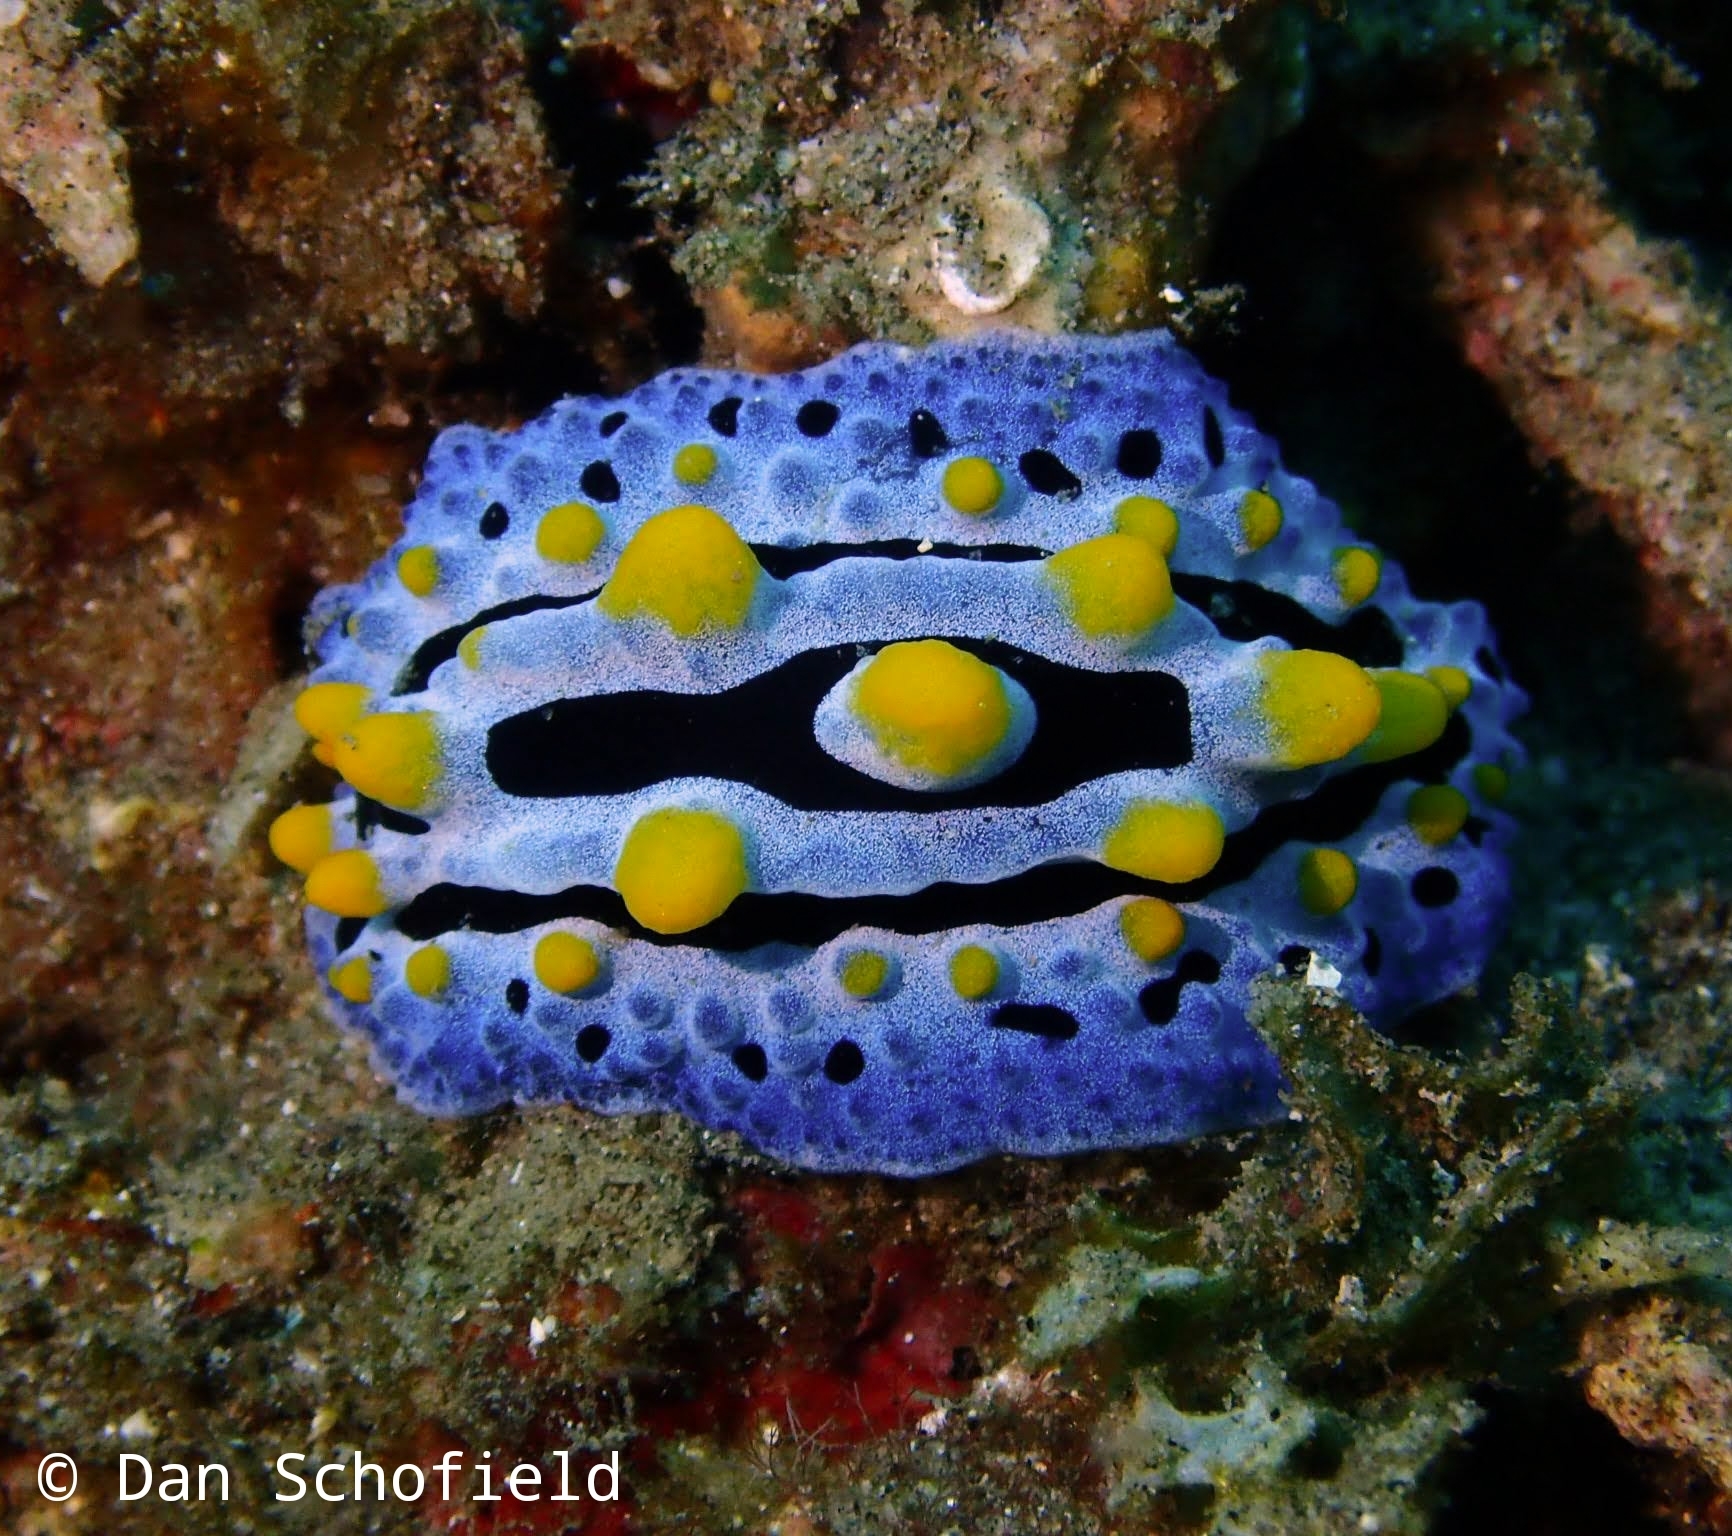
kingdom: Animalia
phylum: Mollusca
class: Gastropoda
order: Nudibranchia
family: Phyllidiidae
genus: Phyllidia
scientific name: Phyllidia coelestis
